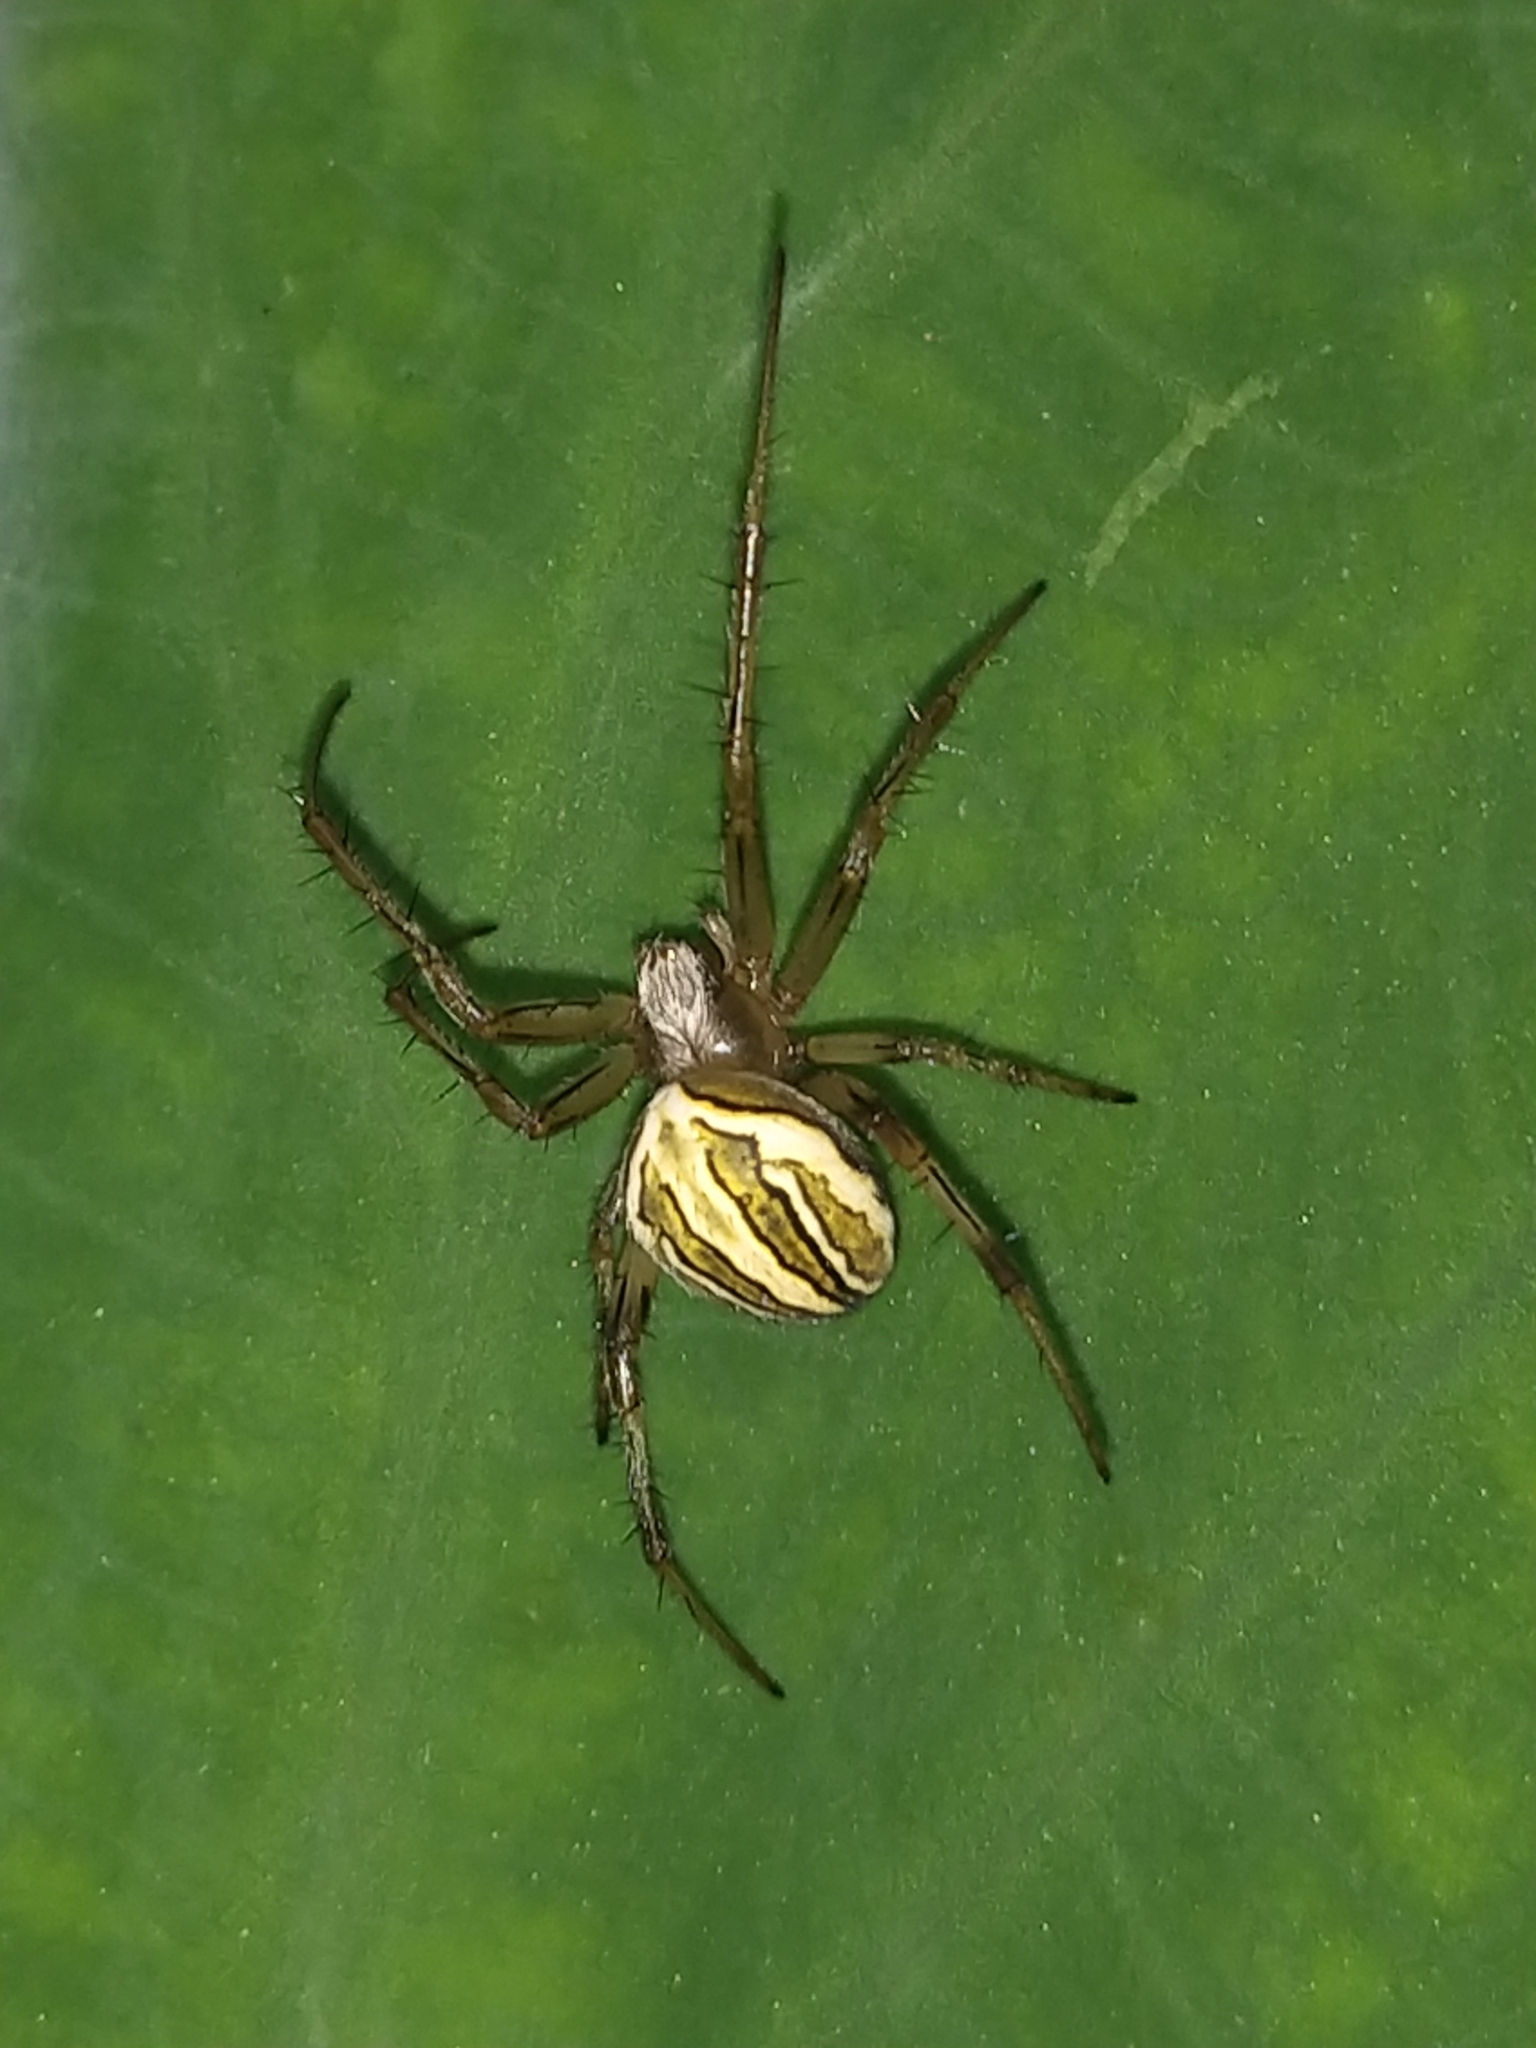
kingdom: Animalia
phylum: Arthropoda
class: Arachnida
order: Araneae
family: Araneidae
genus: Neoscona
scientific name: Neoscona molemensis
